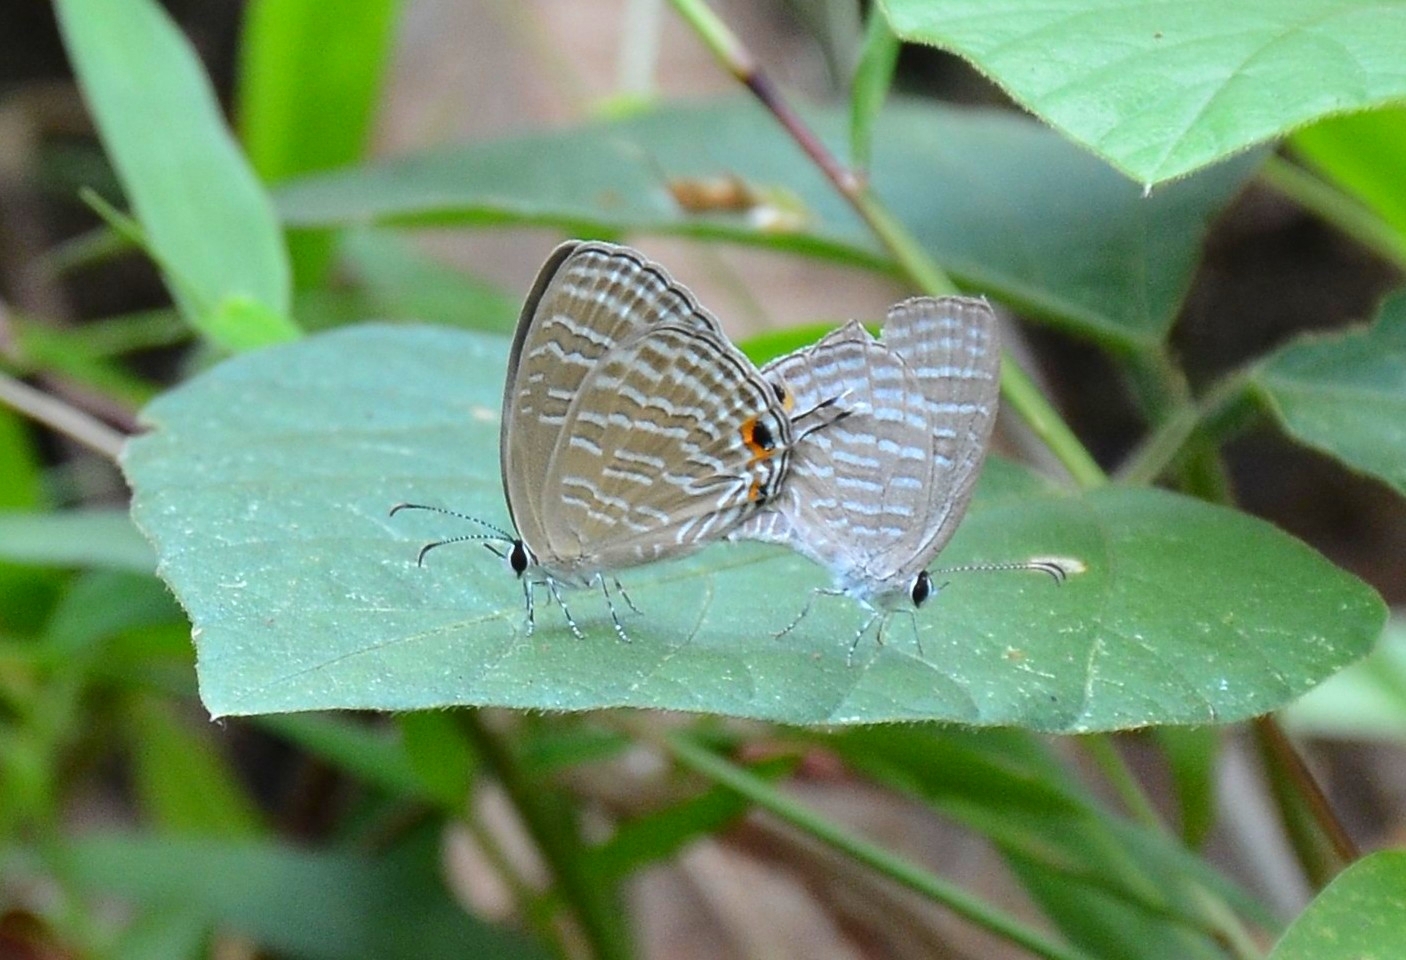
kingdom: Animalia
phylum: Arthropoda
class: Insecta
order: Lepidoptera
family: Lycaenidae
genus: Jamides
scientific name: Jamides celeno
